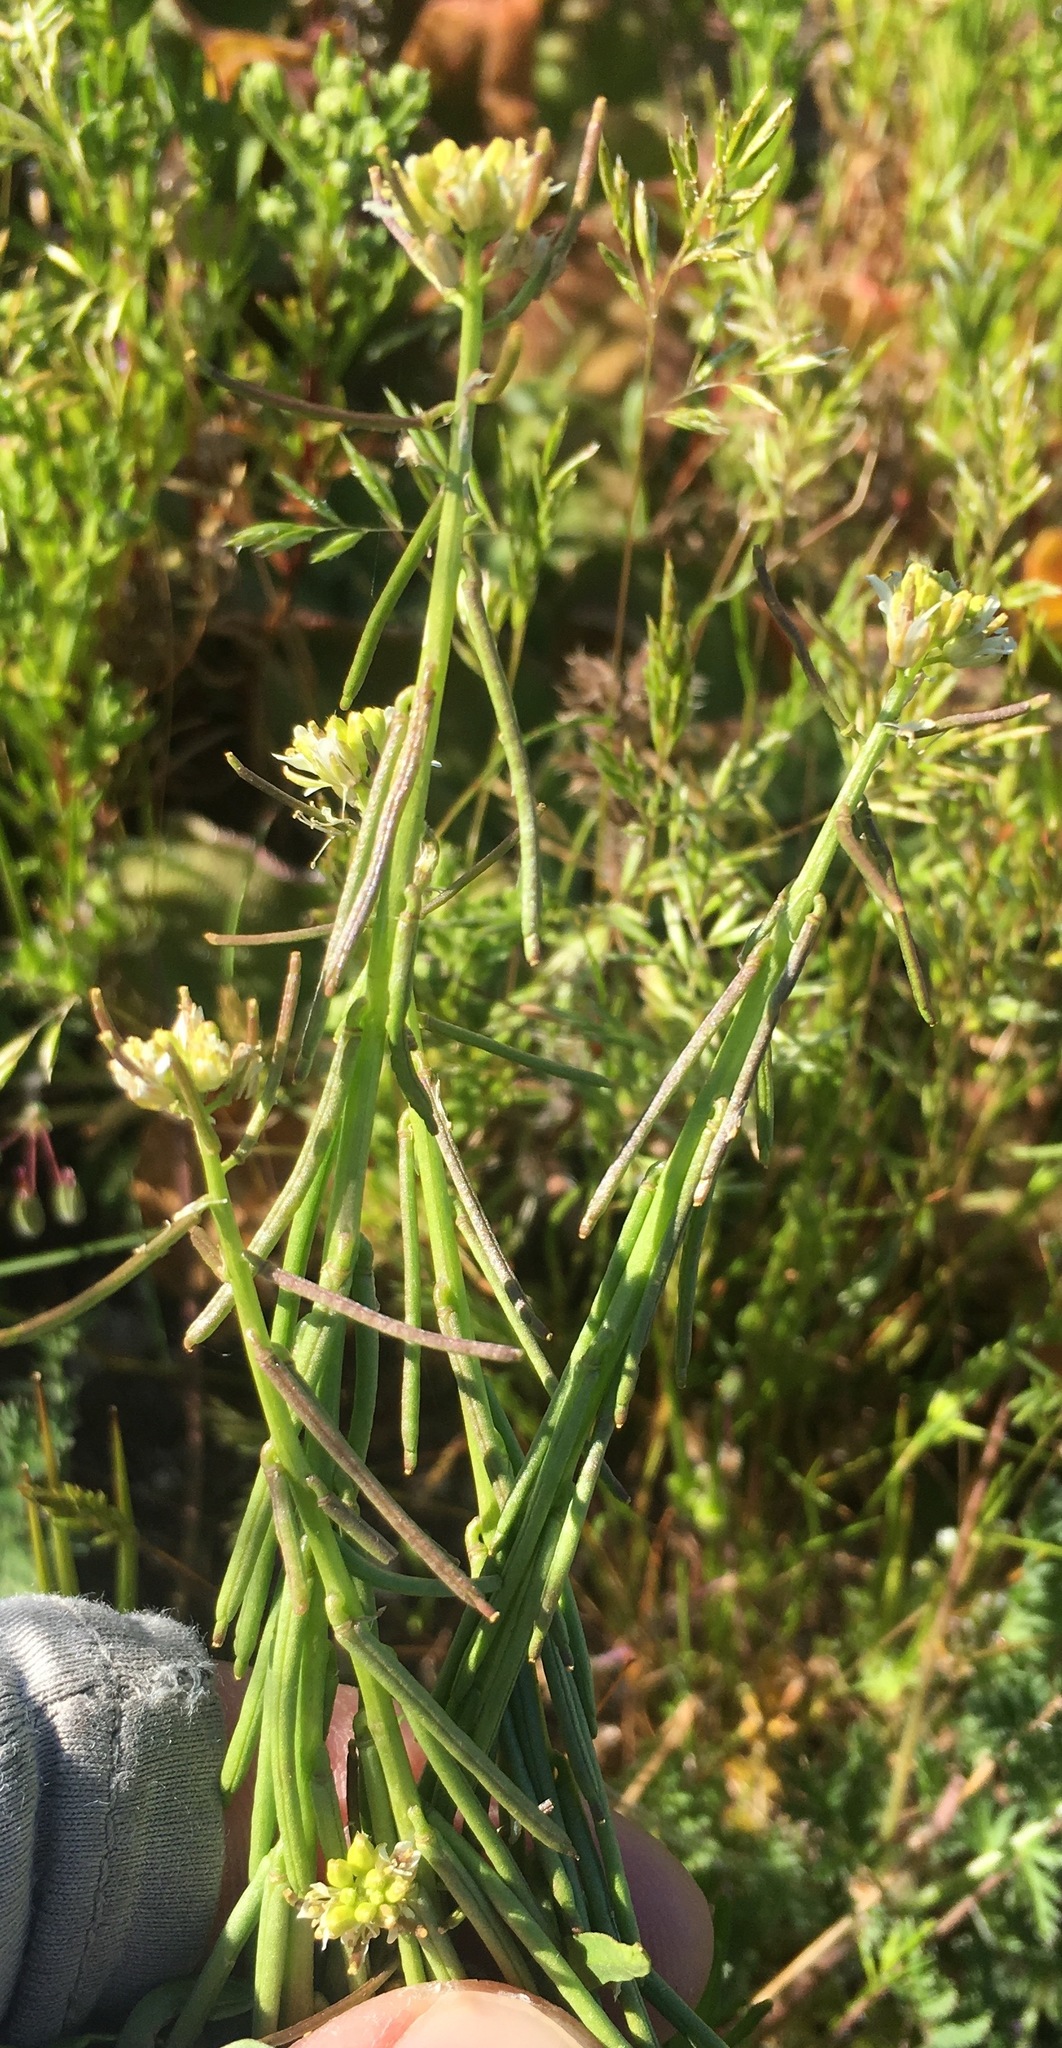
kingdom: Plantae
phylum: Tracheophyta
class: Magnoliopsida
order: Brassicales
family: Brassicaceae
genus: Streptanthus
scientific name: Streptanthus lasiophyllus
